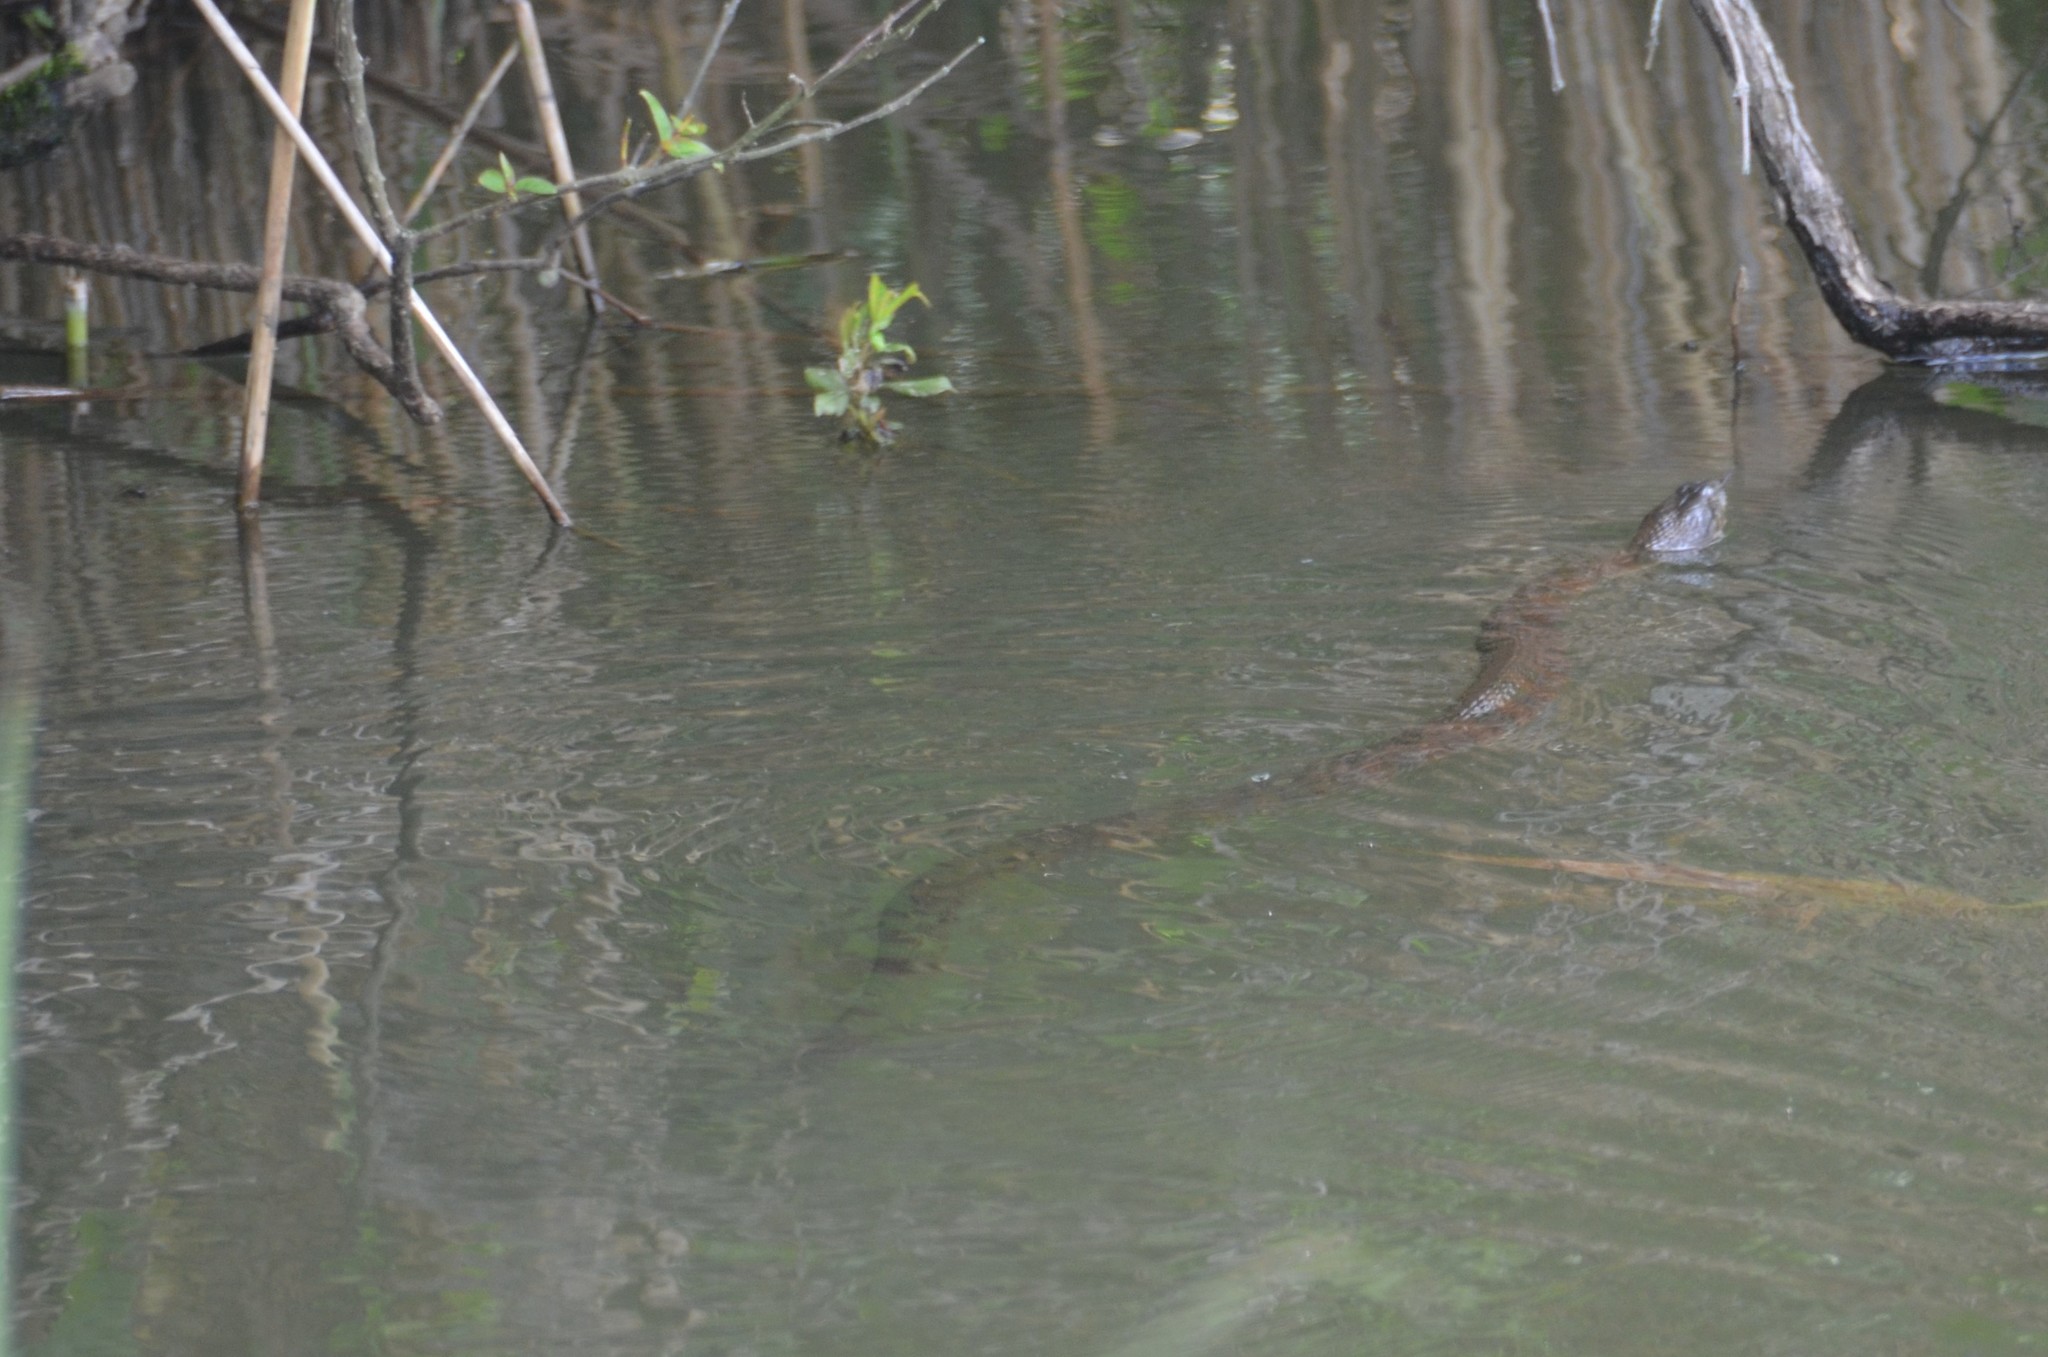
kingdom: Animalia
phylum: Chordata
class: Squamata
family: Colubridae
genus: Nerodia
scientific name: Nerodia sipedon
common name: Northern water snake
